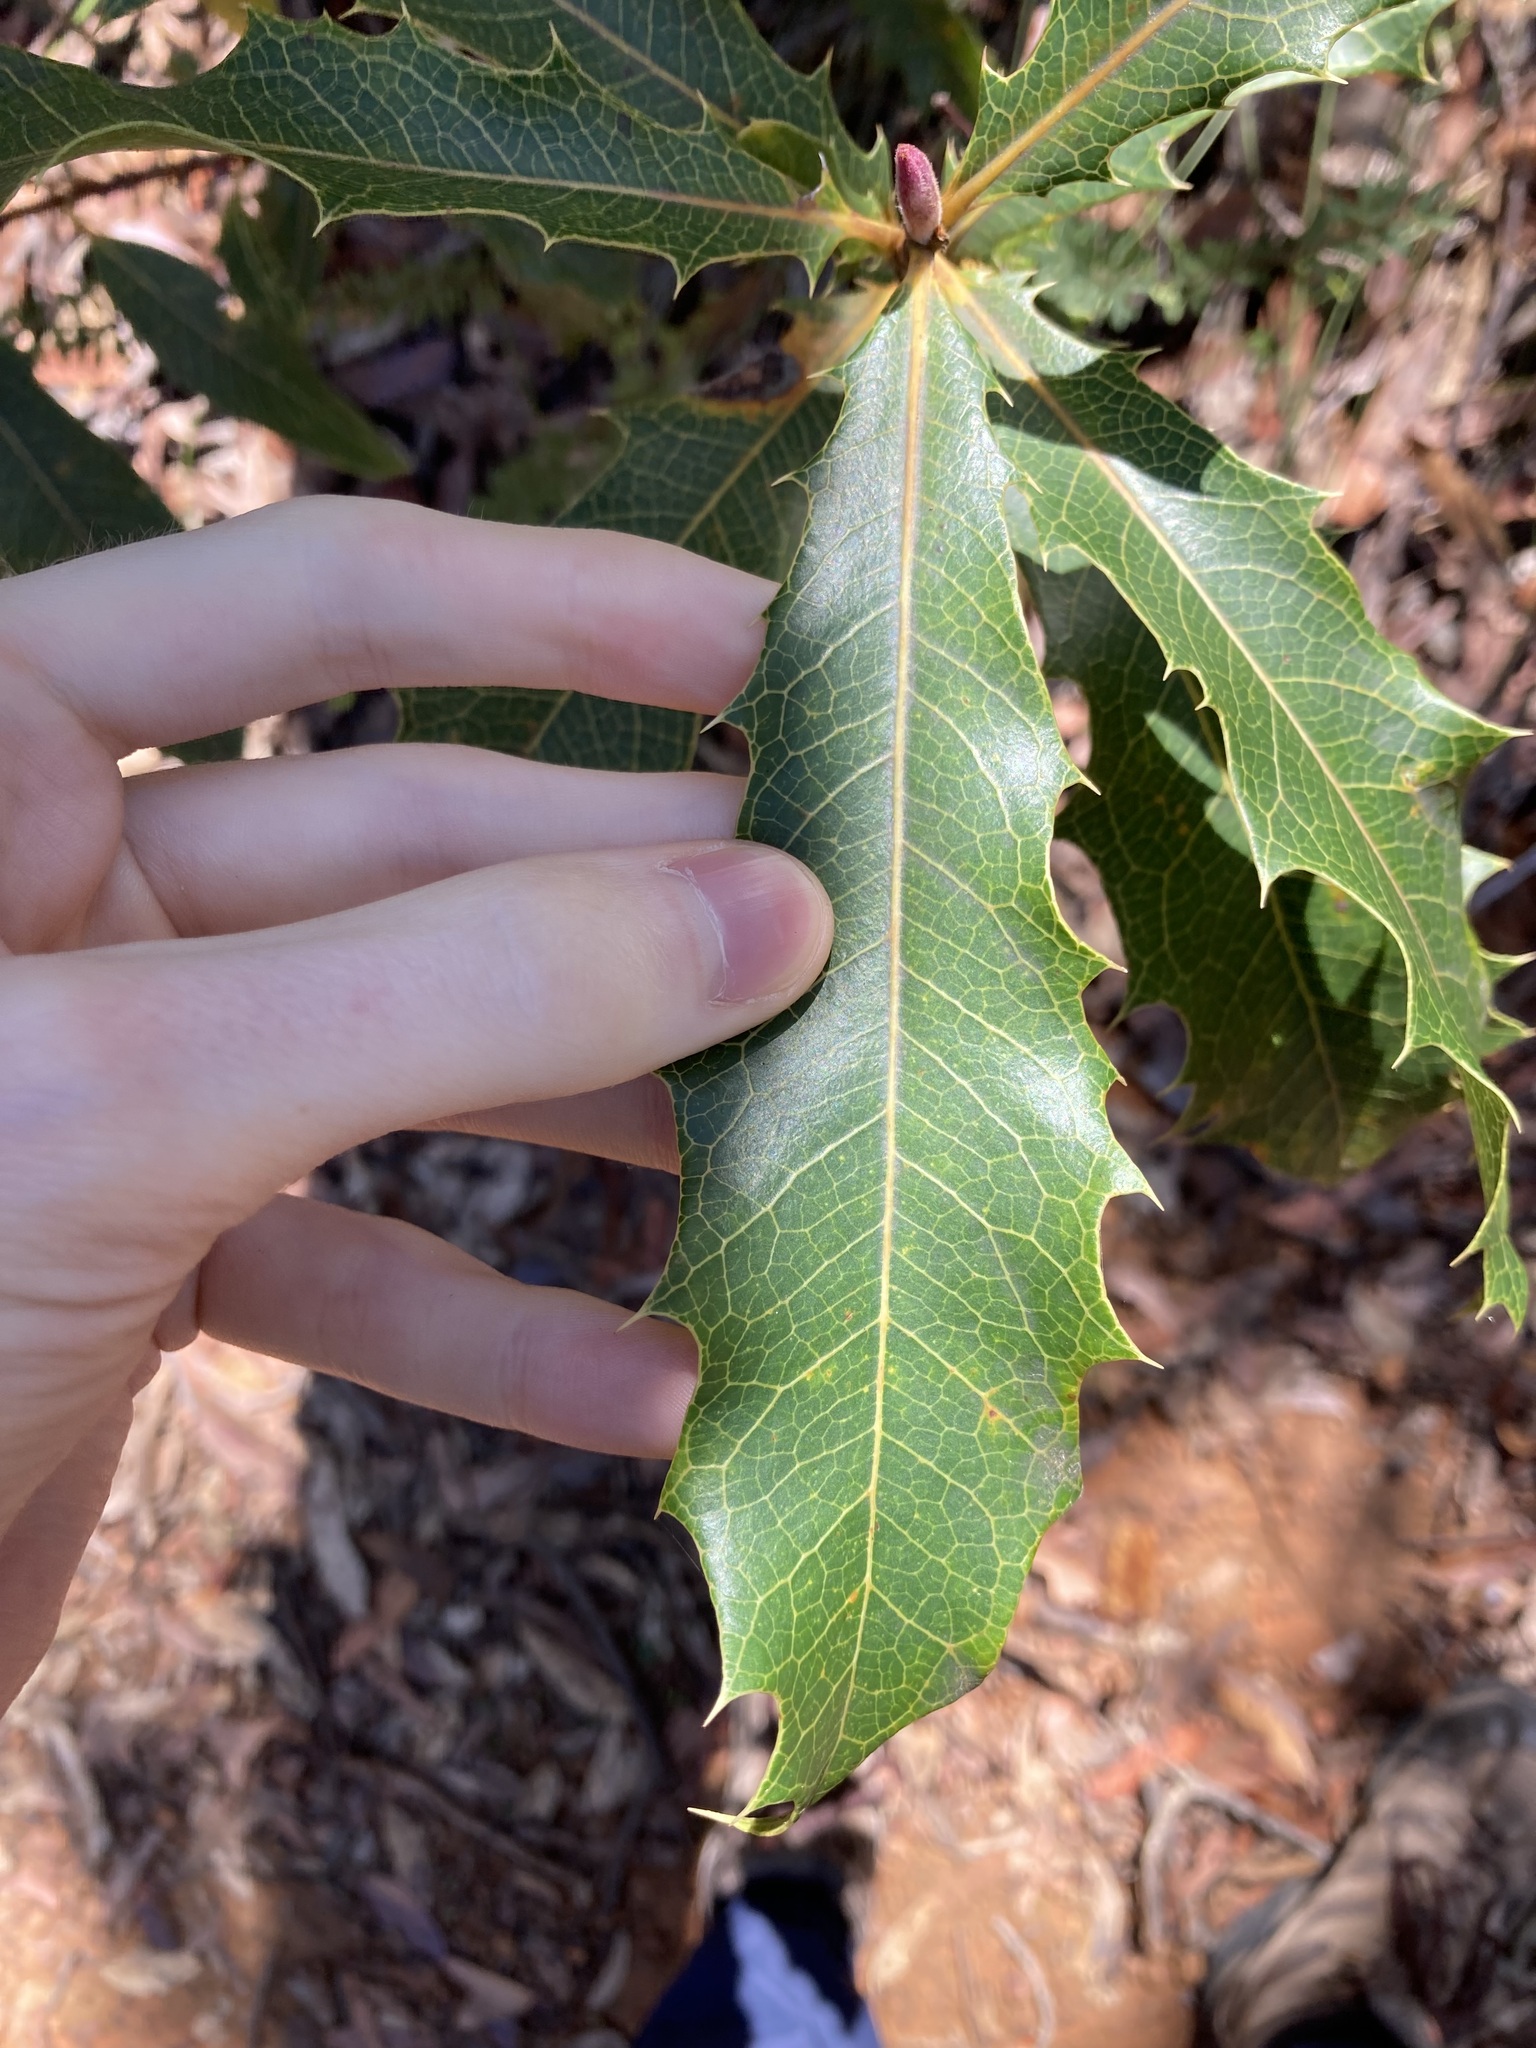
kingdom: Plantae
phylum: Tracheophyta
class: Magnoliopsida
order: Proteales
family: Proteaceae
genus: Xylomelum
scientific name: Xylomelum pyriforme
